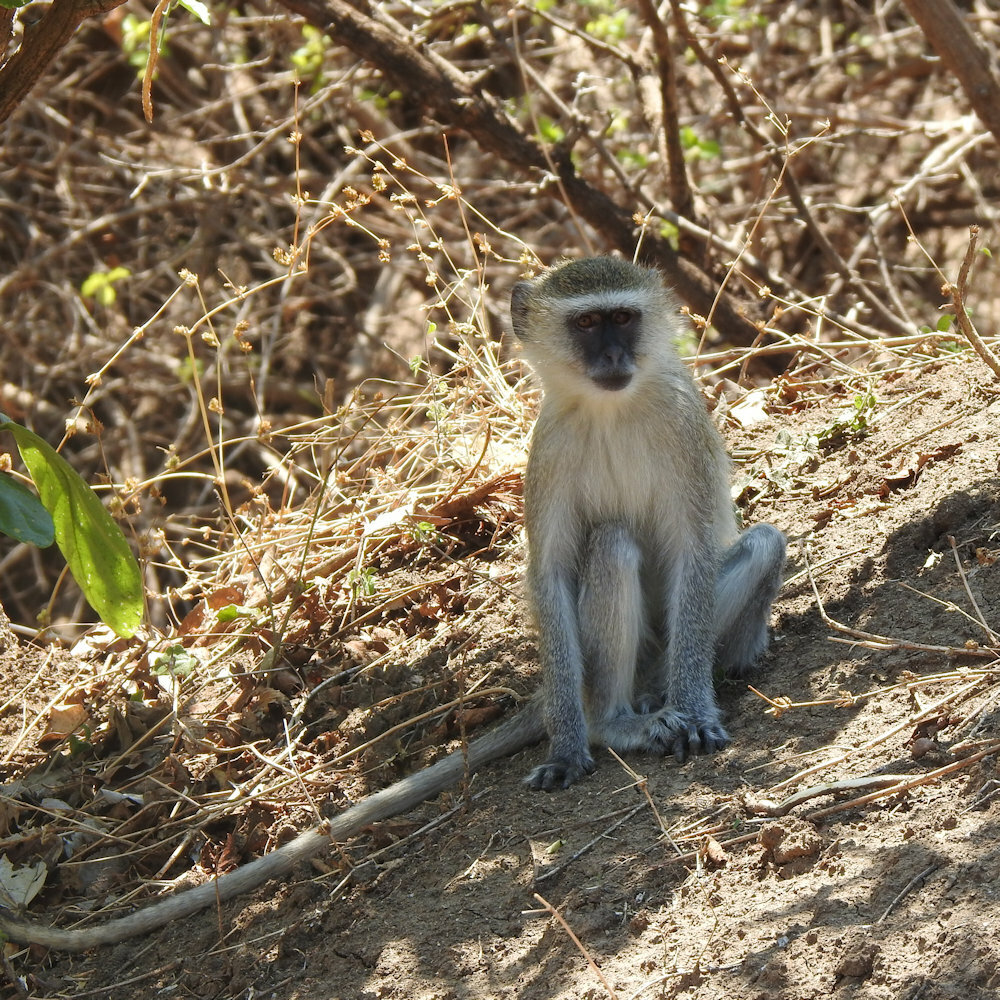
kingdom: Animalia
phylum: Chordata
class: Mammalia
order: Primates
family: Cercopithecidae
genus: Chlorocebus
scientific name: Chlorocebus pygerythrus
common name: Vervet monkey
